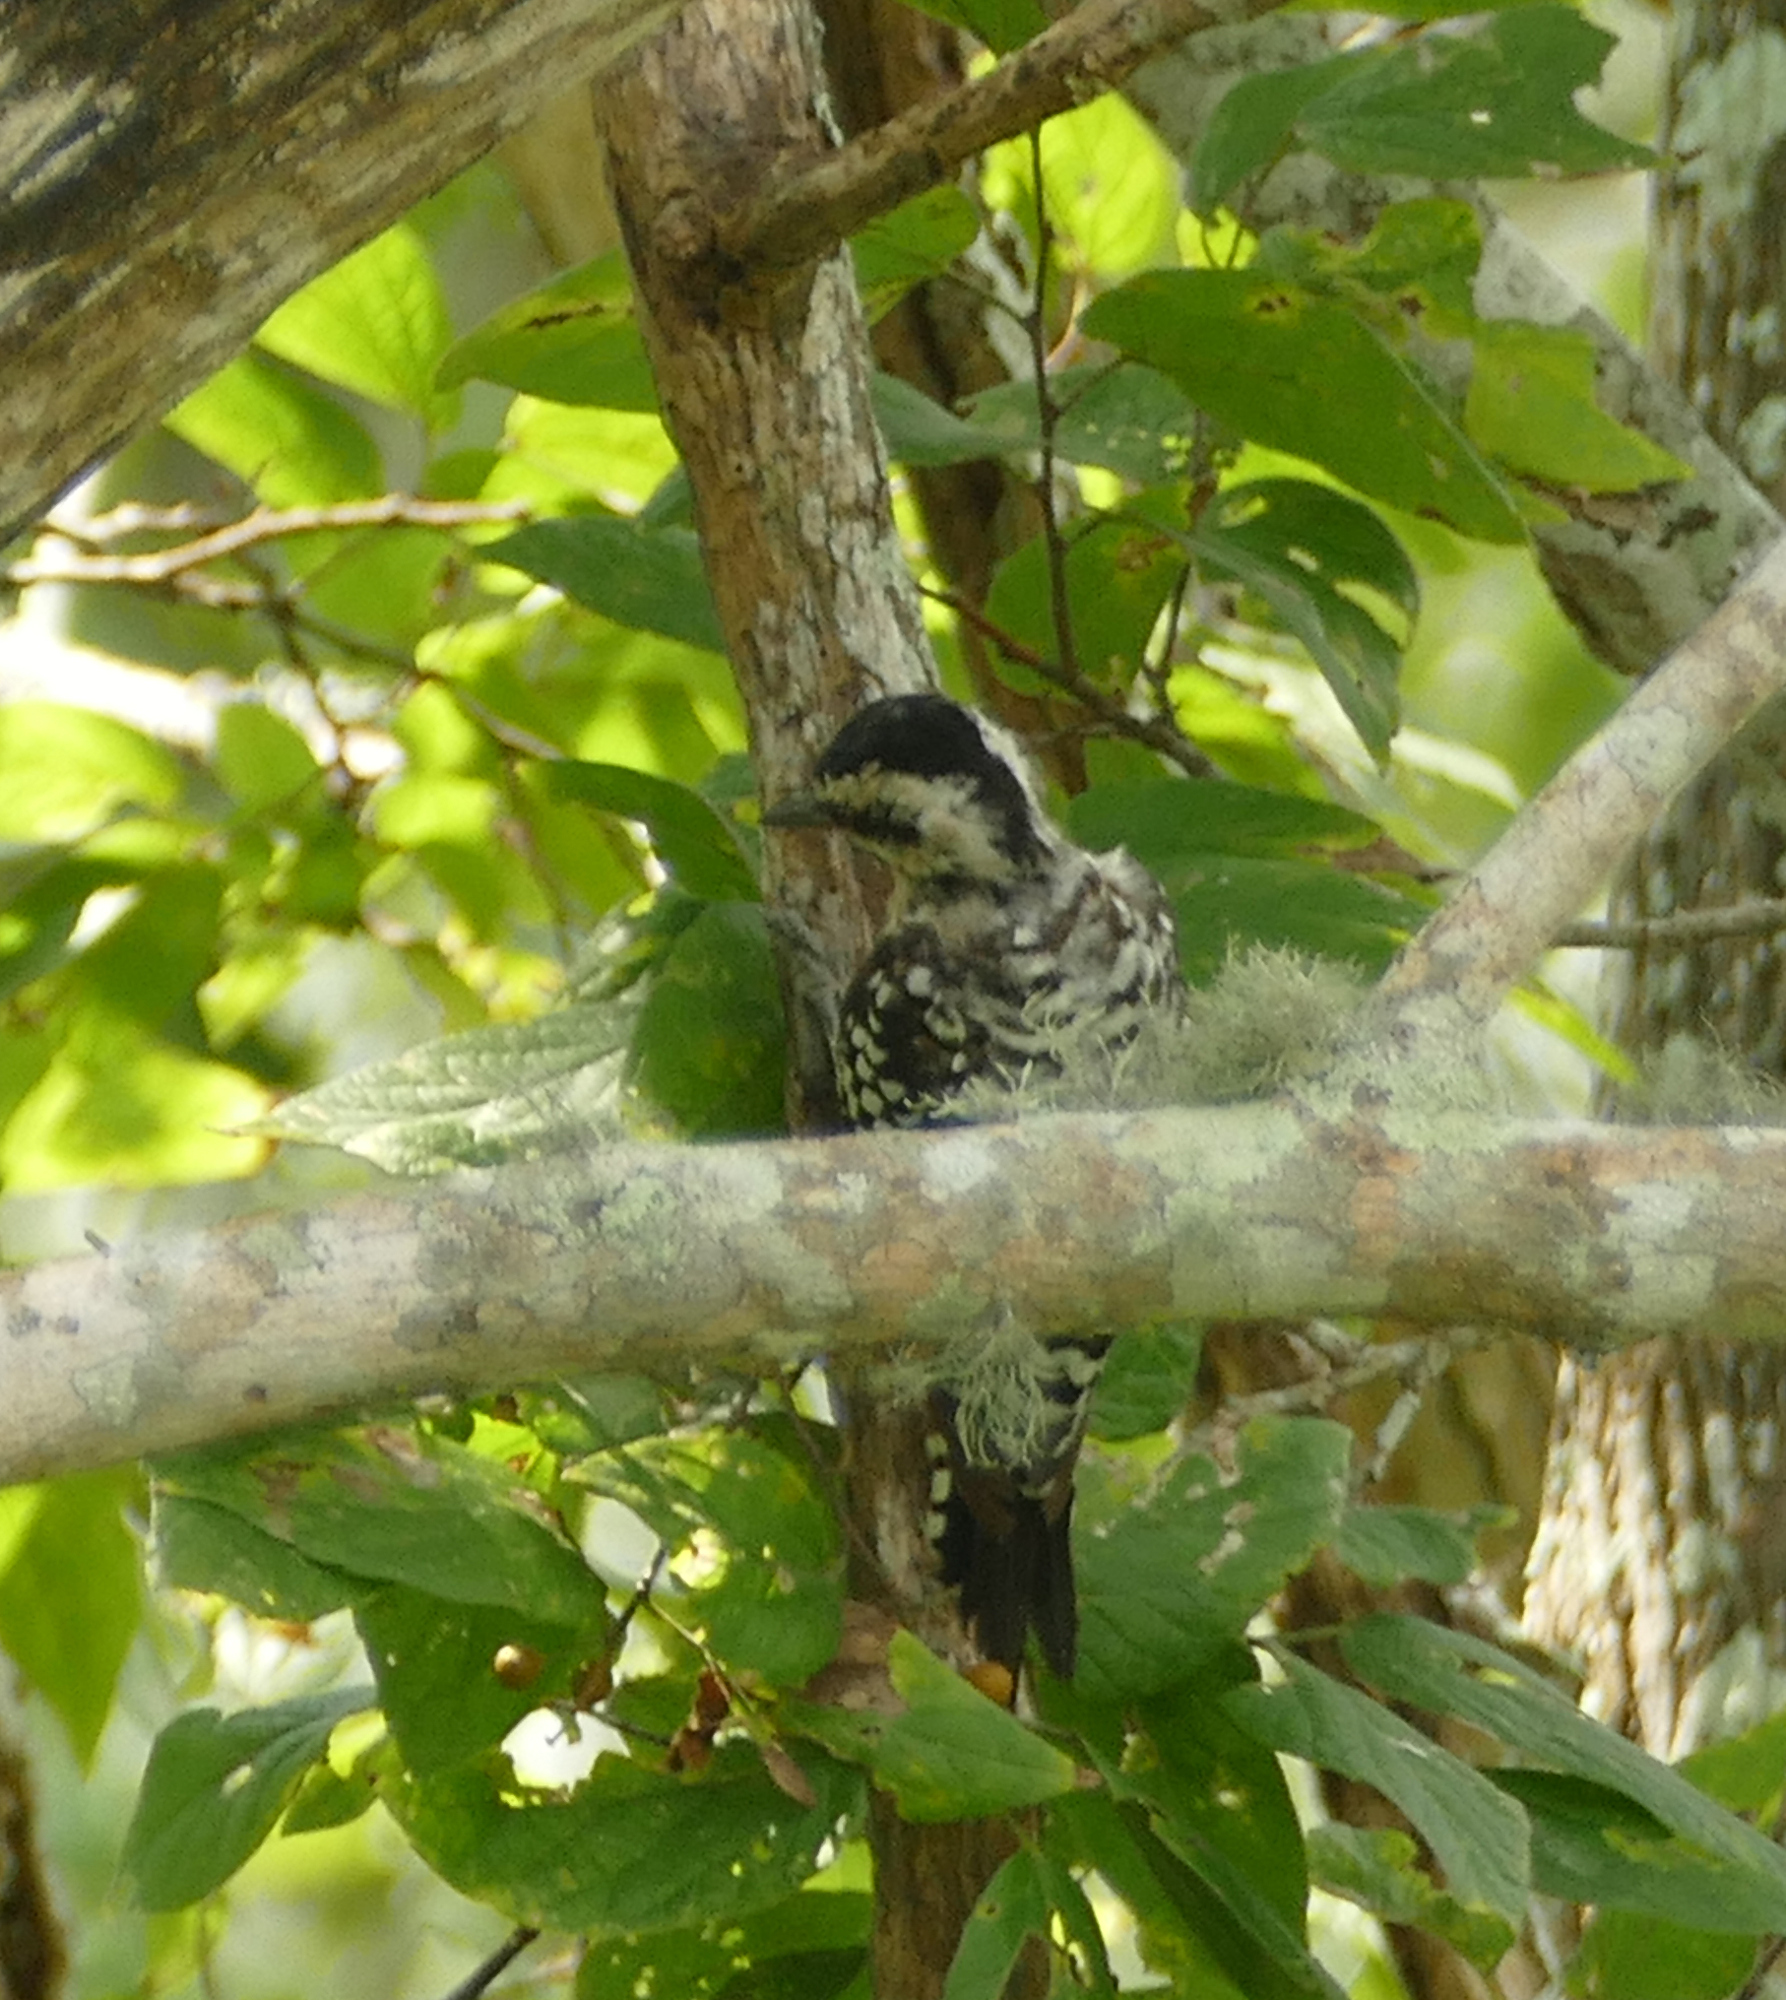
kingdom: Animalia
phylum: Chordata
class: Aves
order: Piciformes
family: Picidae
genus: Dryobates
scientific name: Dryobates scalaris
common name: Ladder-backed woodpecker
